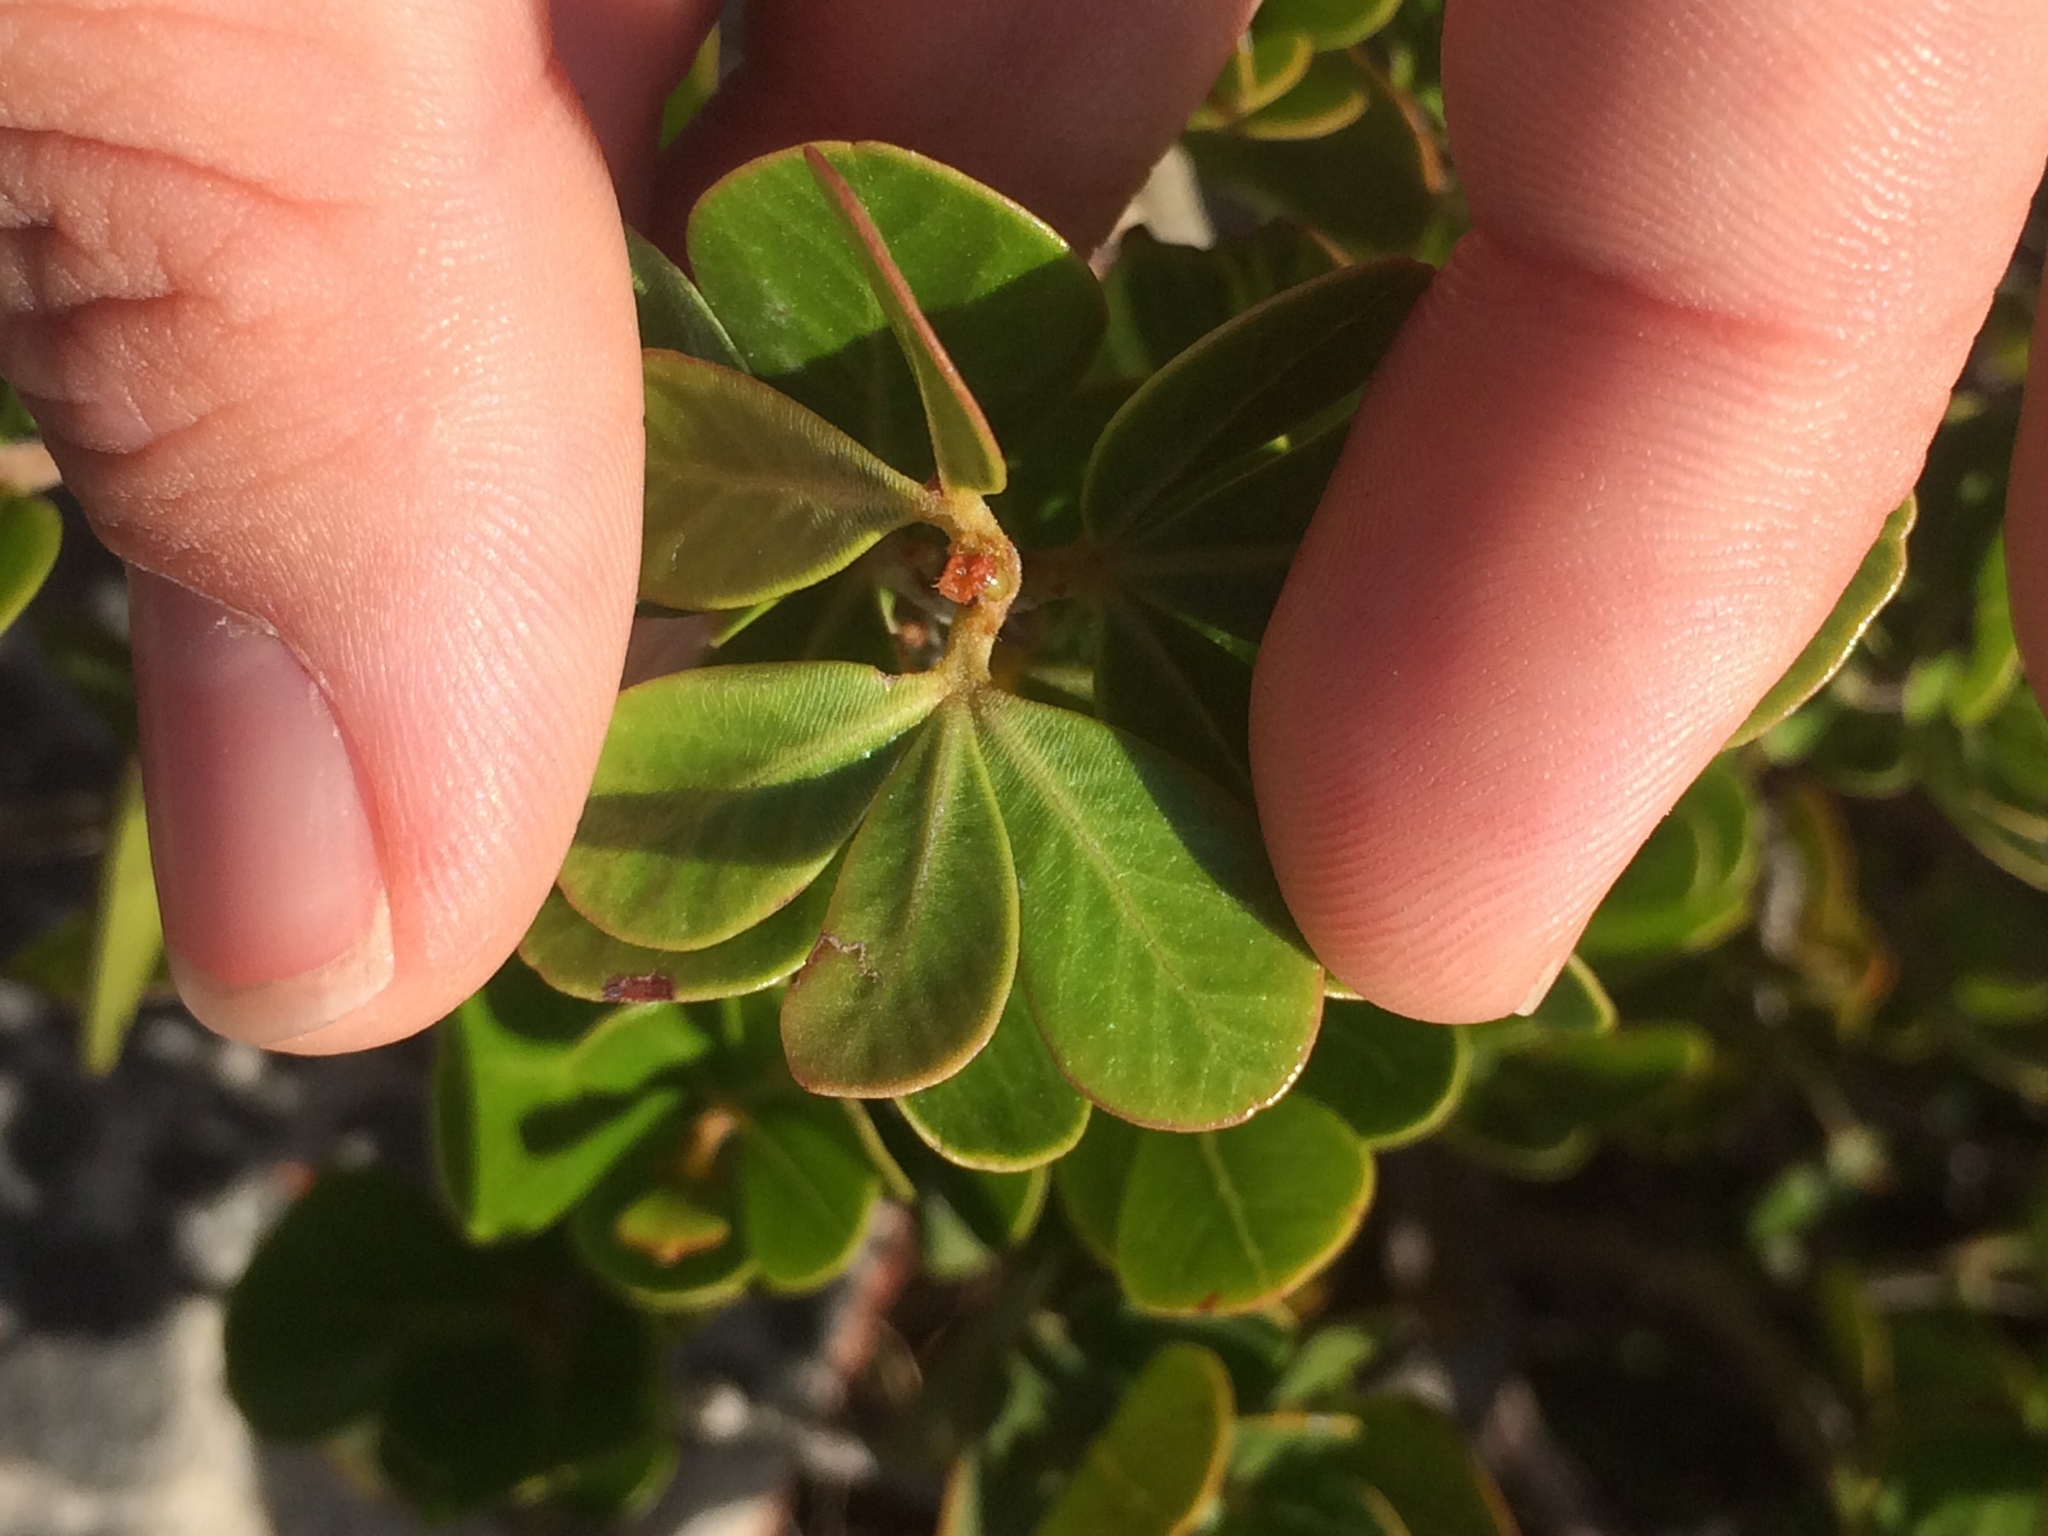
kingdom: Plantae
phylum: Tracheophyta
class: Magnoliopsida
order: Sapindales
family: Anacardiaceae
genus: Searsia
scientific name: Searsia lucida
